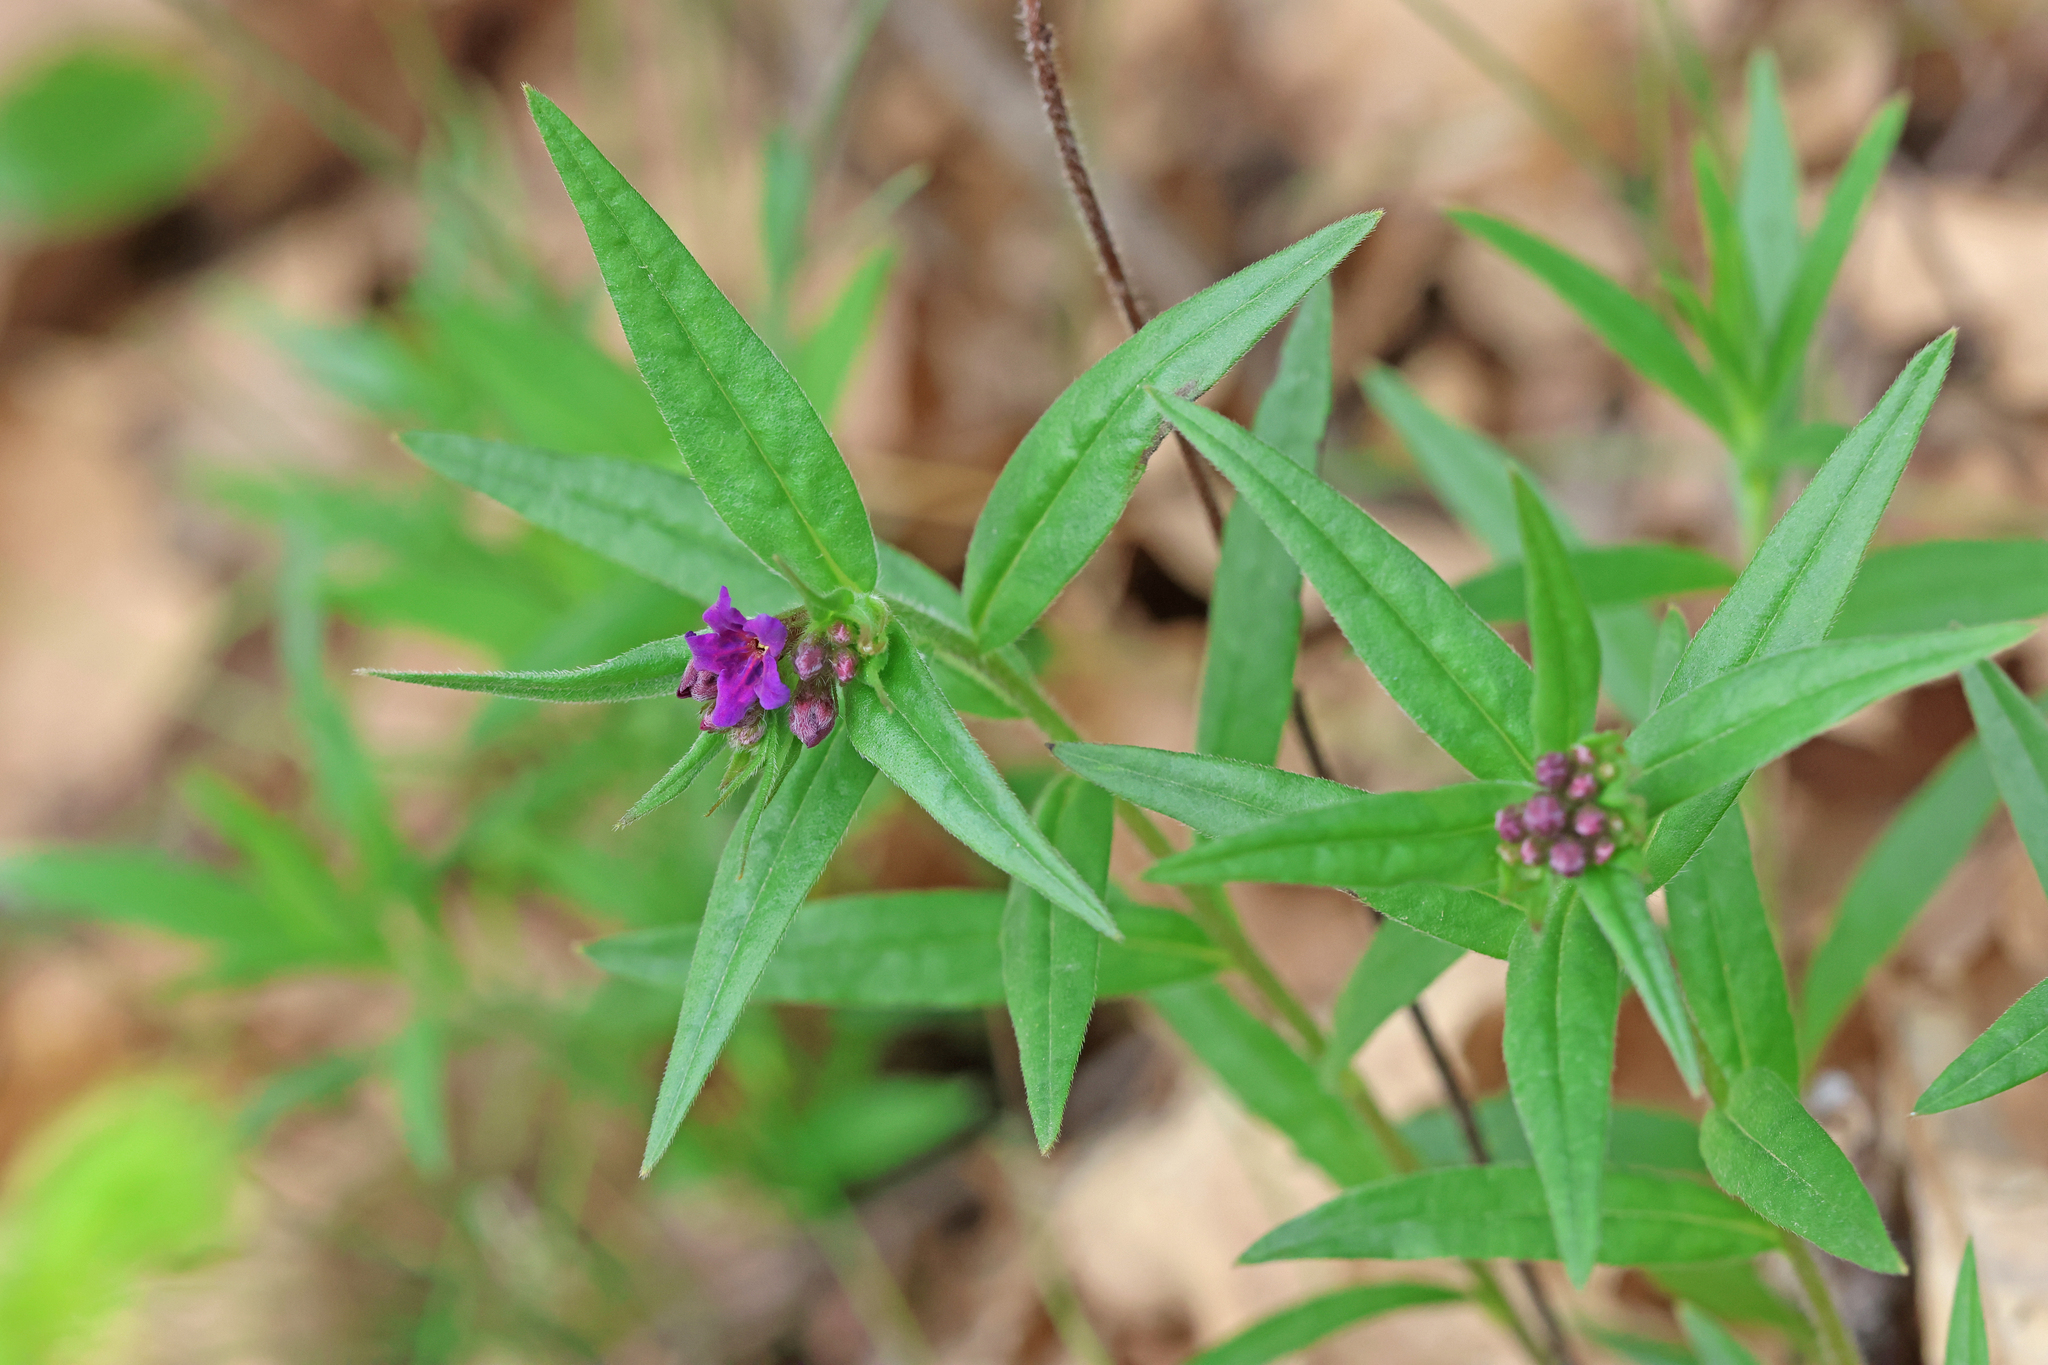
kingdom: Plantae
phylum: Tracheophyta
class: Magnoliopsida
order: Boraginales
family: Boraginaceae
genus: Aegonychon
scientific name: Aegonychon purpurocaeruleum
